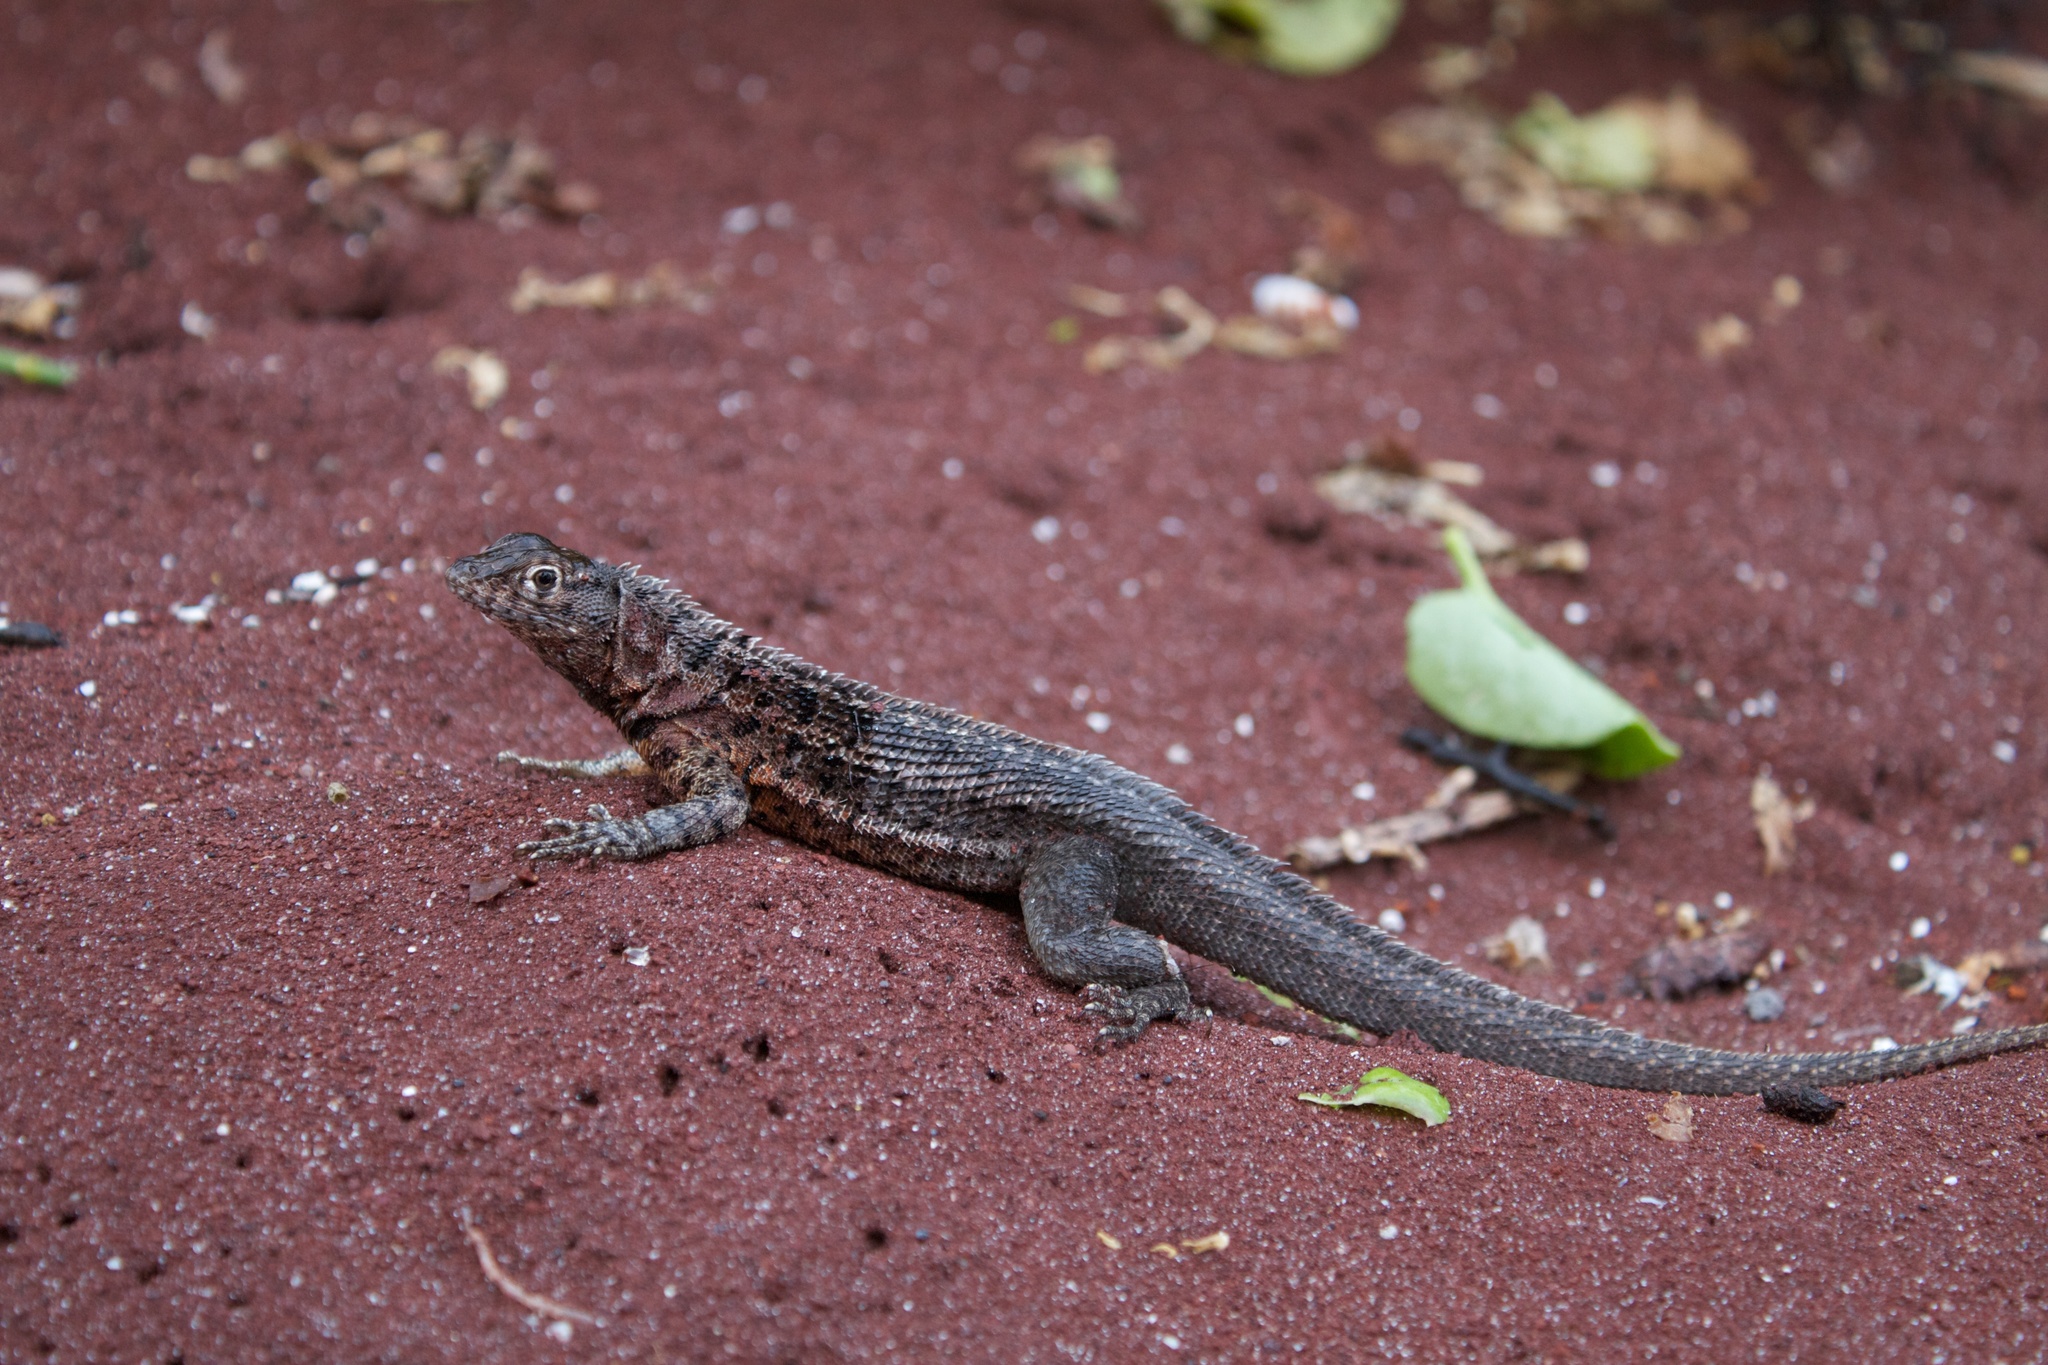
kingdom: Animalia
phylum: Chordata
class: Squamata
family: Tropiduridae
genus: Microlophus
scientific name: Microlophus jacobii
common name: Santiago lava lizard
